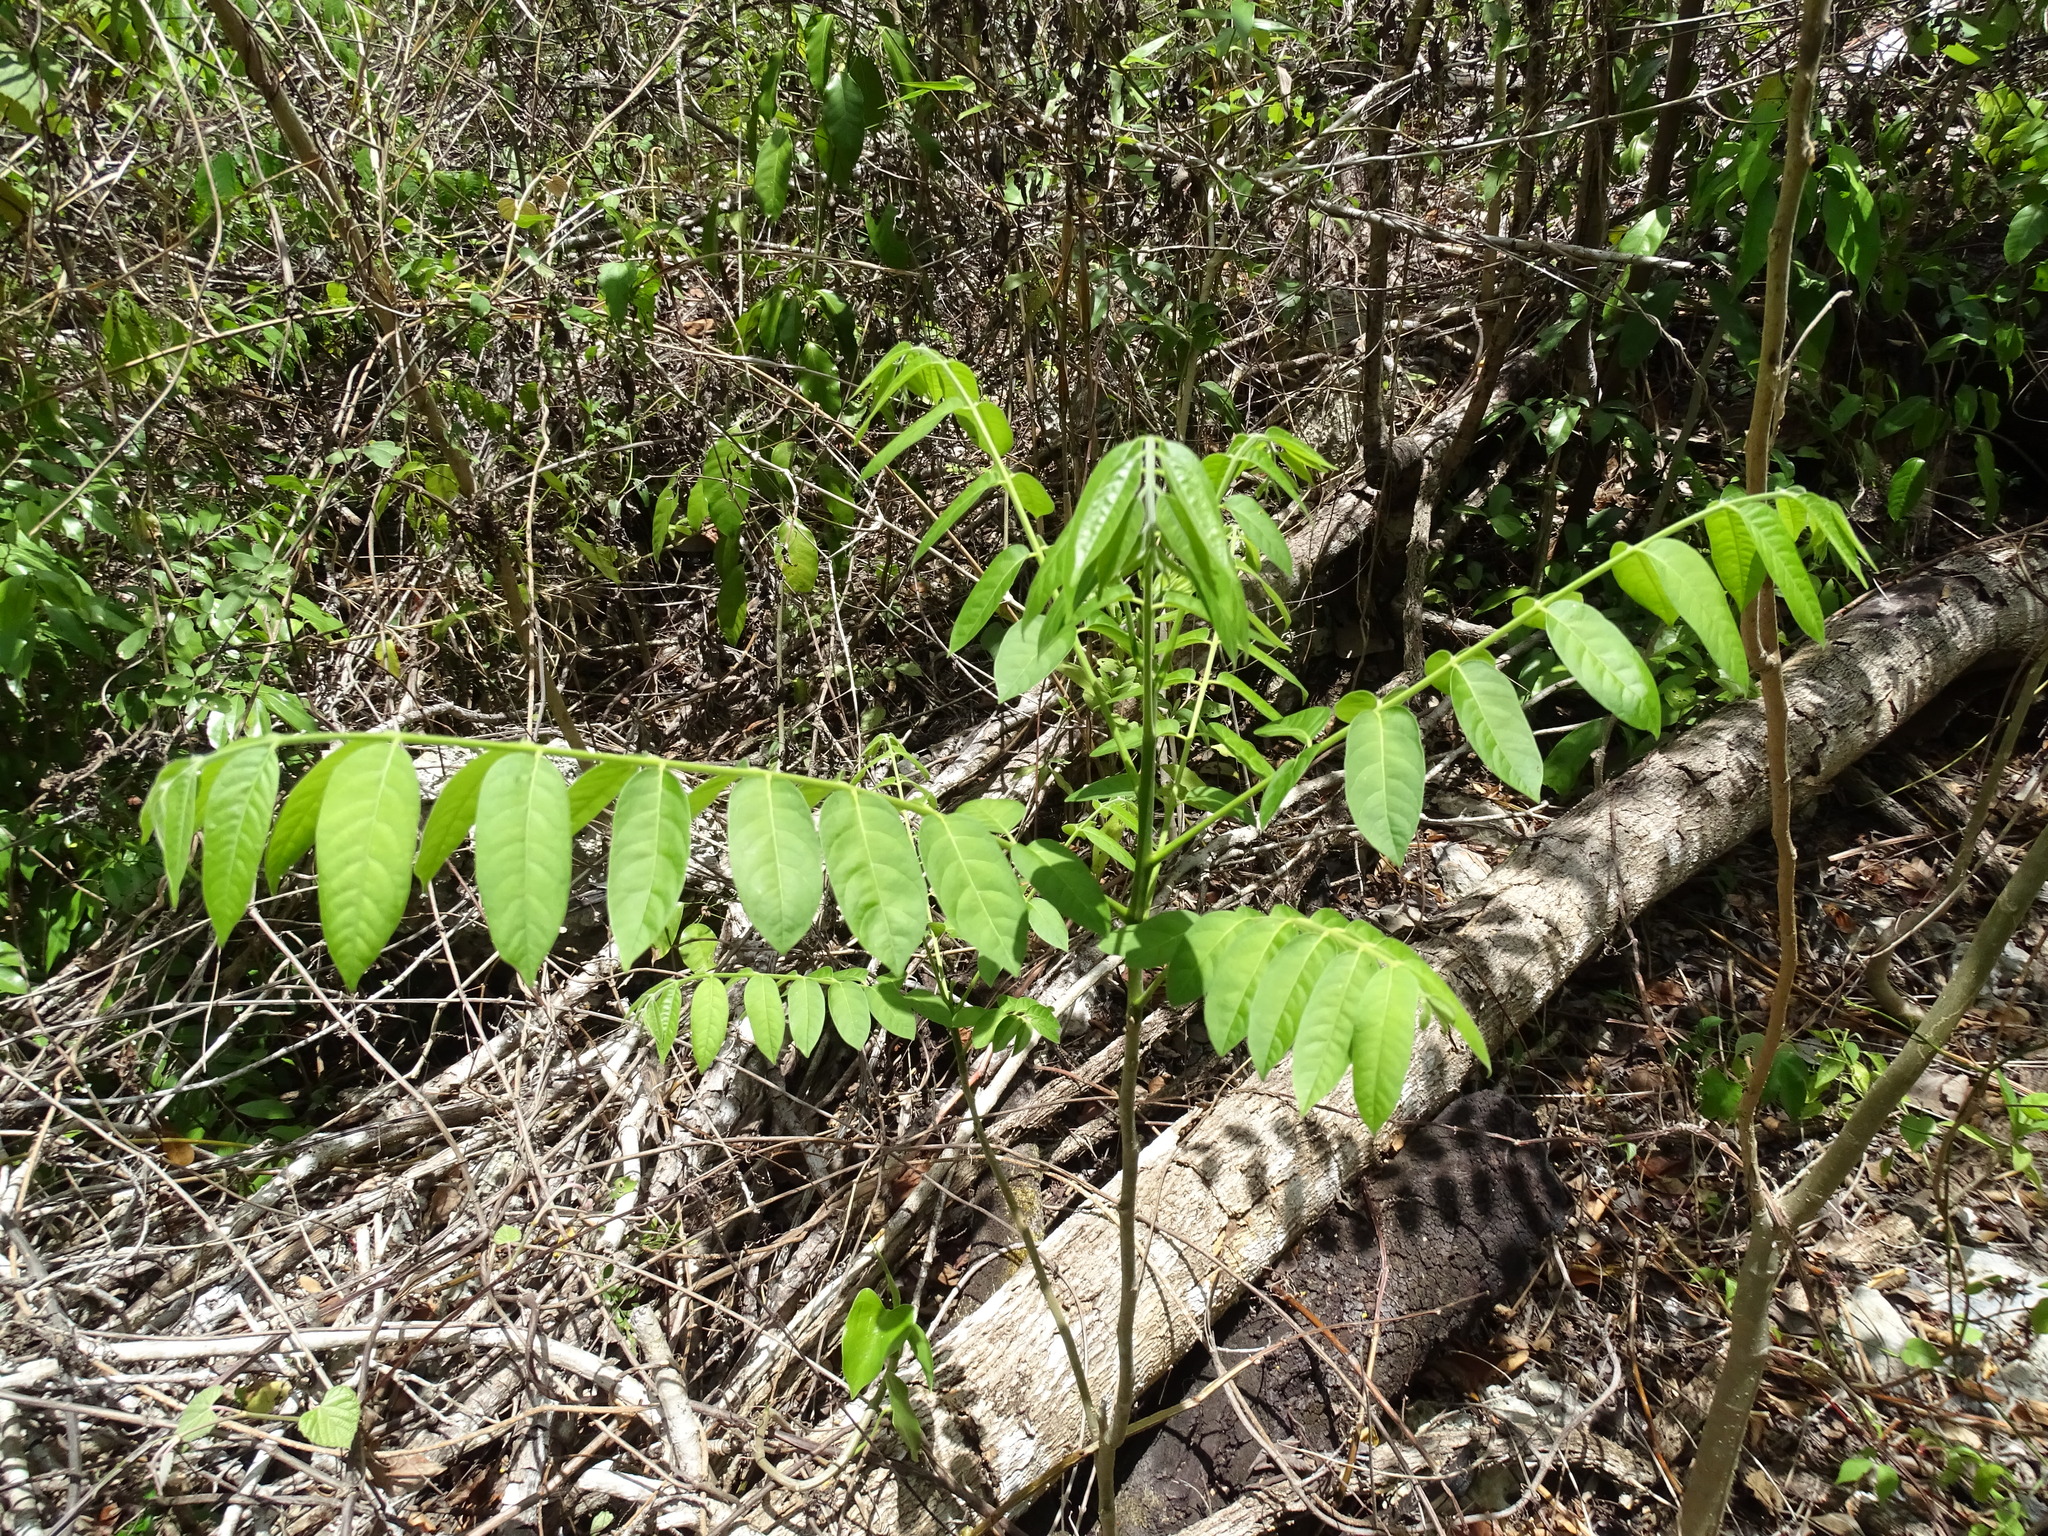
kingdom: Plantae
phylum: Tracheophyta
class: Magnoliopsida
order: Sapindales
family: Meliaceae
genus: Cedrela
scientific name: Cedrela odorata
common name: Red cedar
